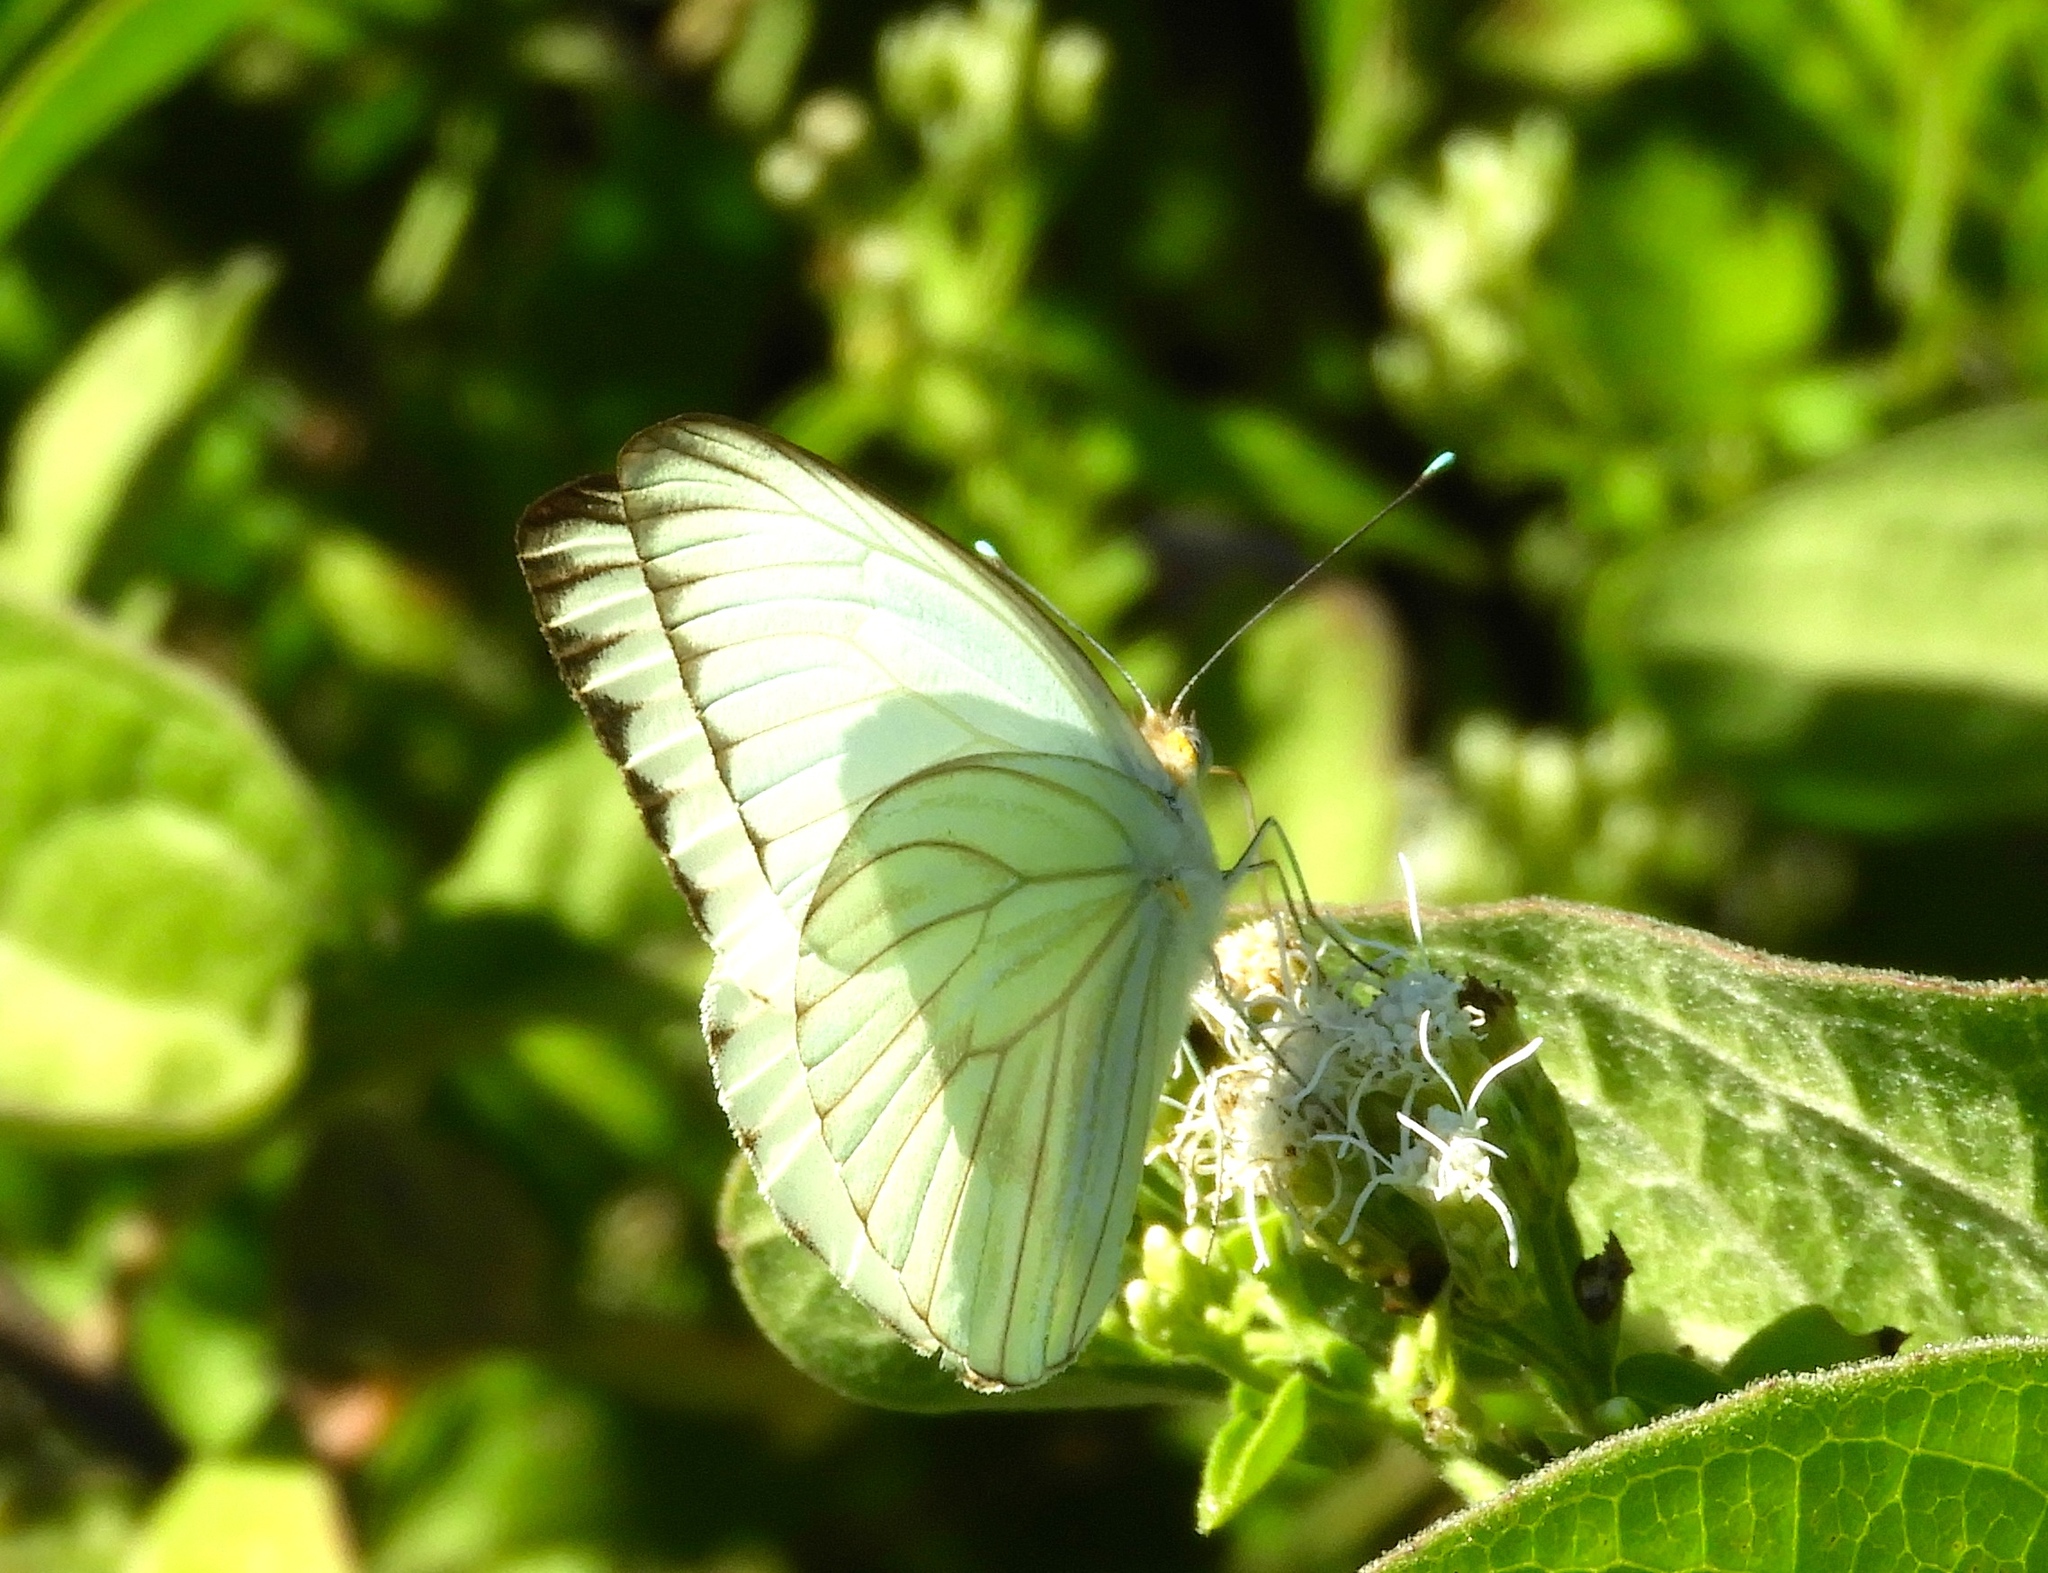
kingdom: Animalia
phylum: Arthropoda
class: Insecta
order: Lepidoptera
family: Pieridae
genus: Ascia
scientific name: Ascia monuste
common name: Great southern white
